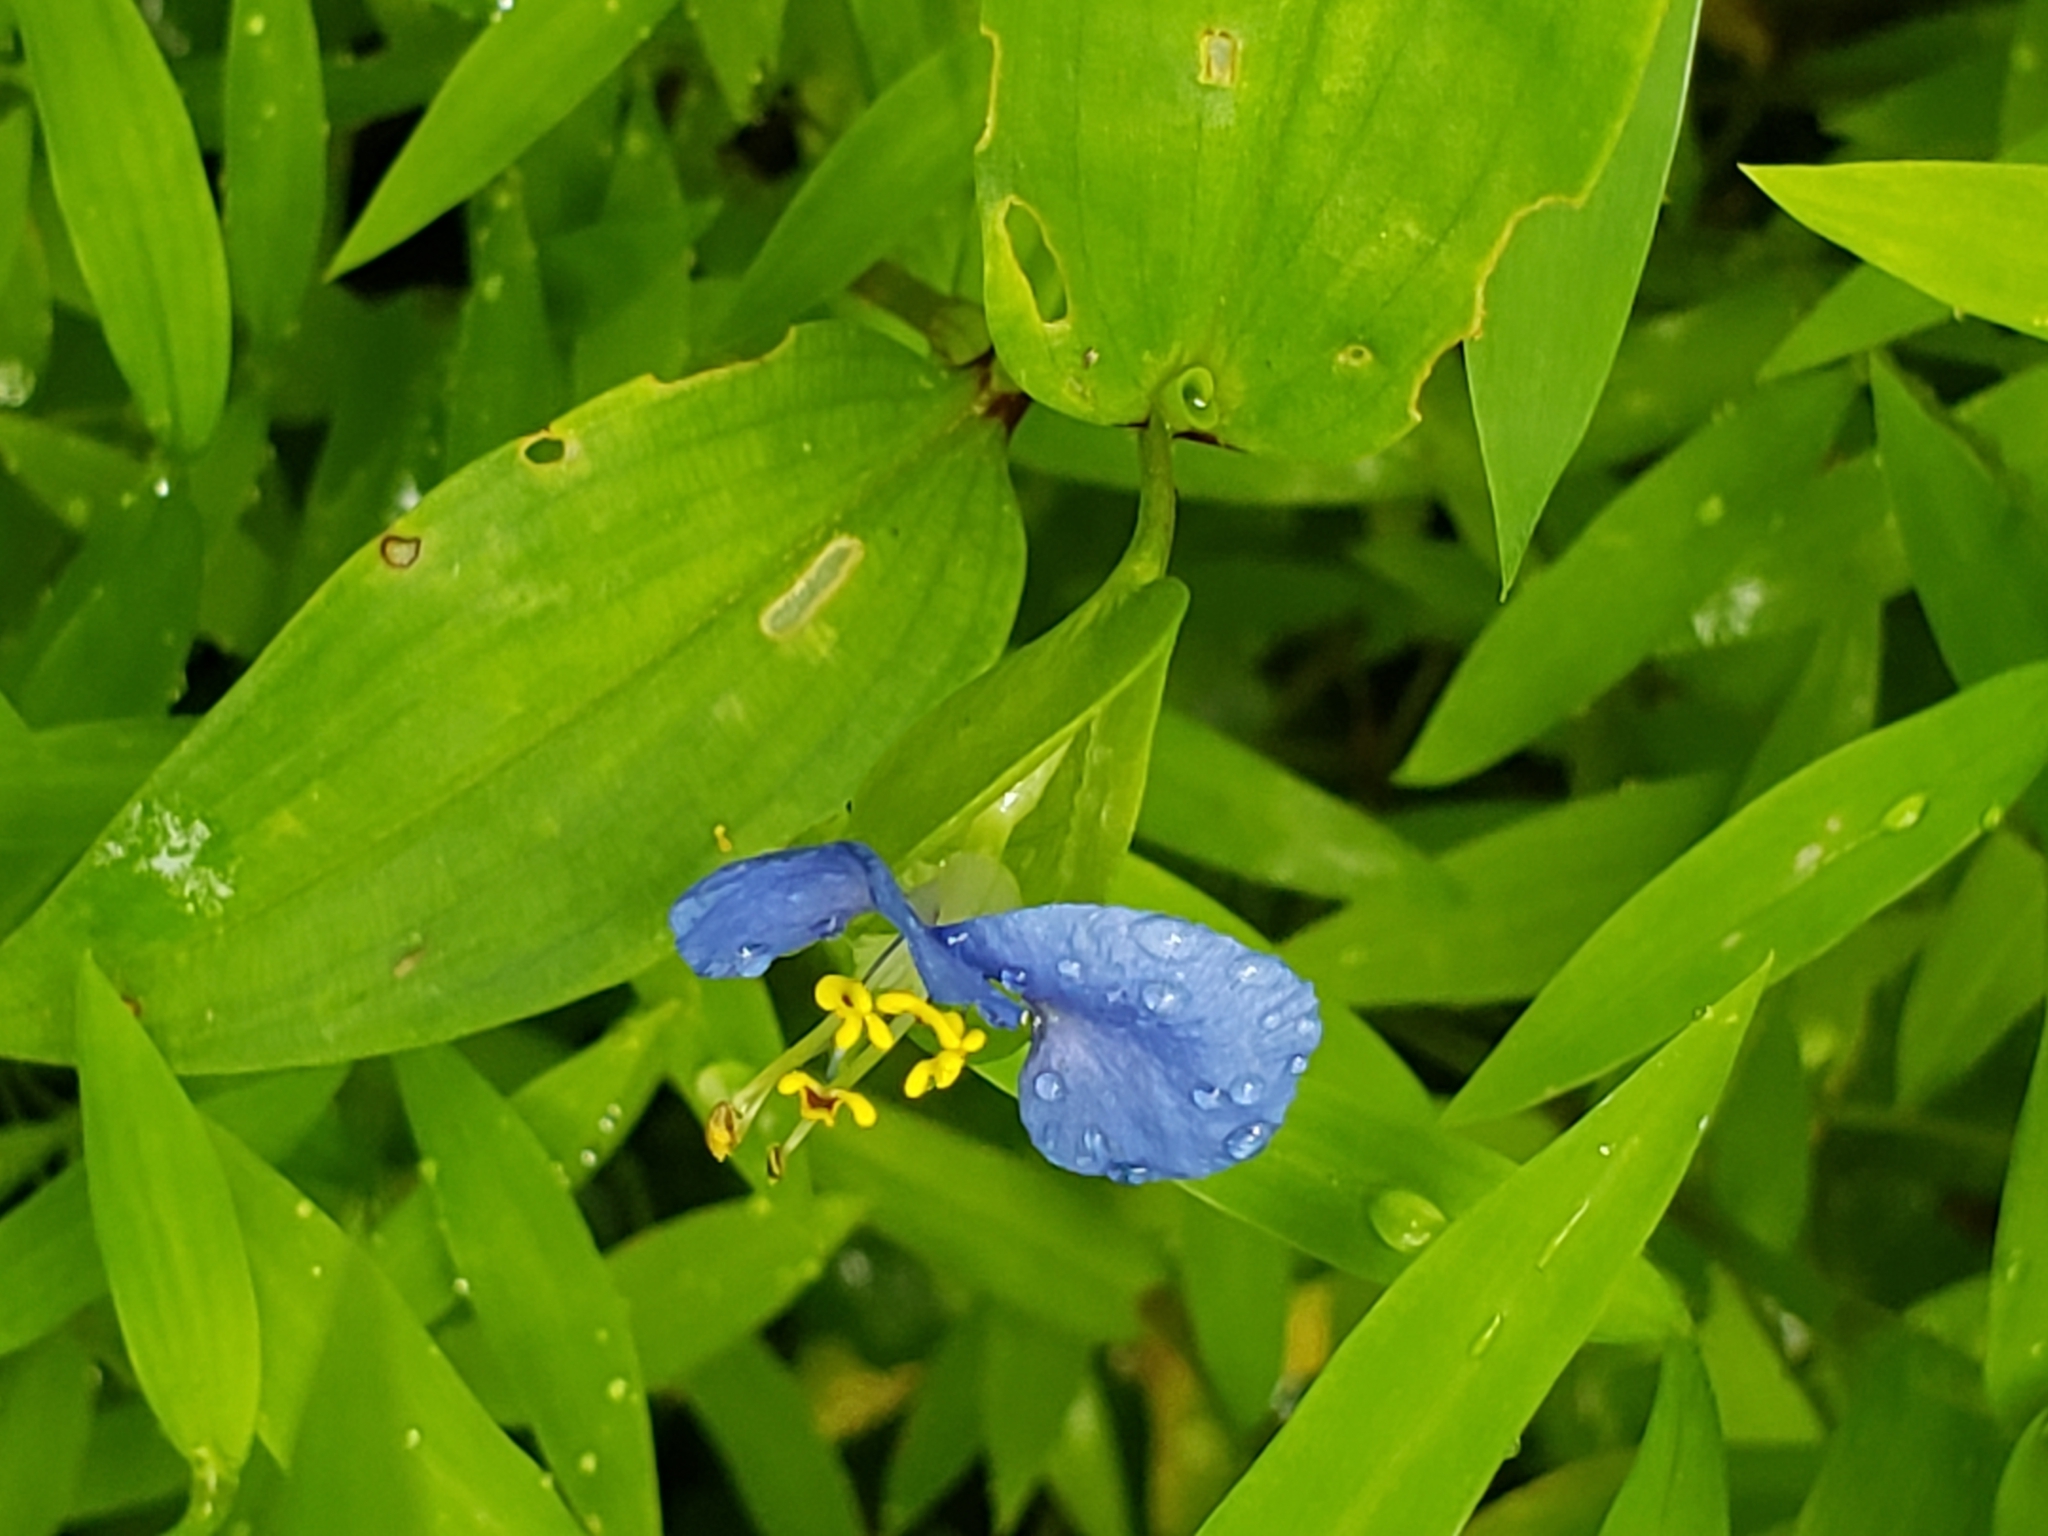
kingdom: Plantae
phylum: Tracheophyta
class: Liliopsida
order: Commelinales
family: Commelinaceae
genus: Commelina
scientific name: Commelina communis
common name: Asiatic dayflower
